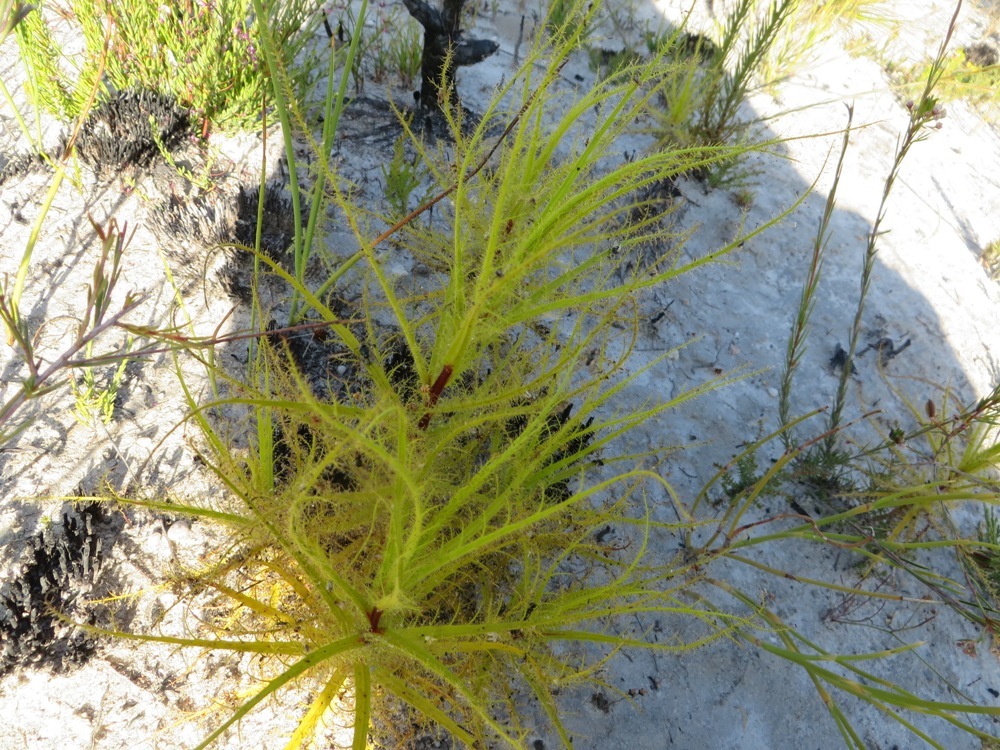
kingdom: Plantae
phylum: Tracheophyta
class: Magnoliopsida
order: Ericales
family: Roridulaceae
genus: Roridula
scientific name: Roridula dentata
